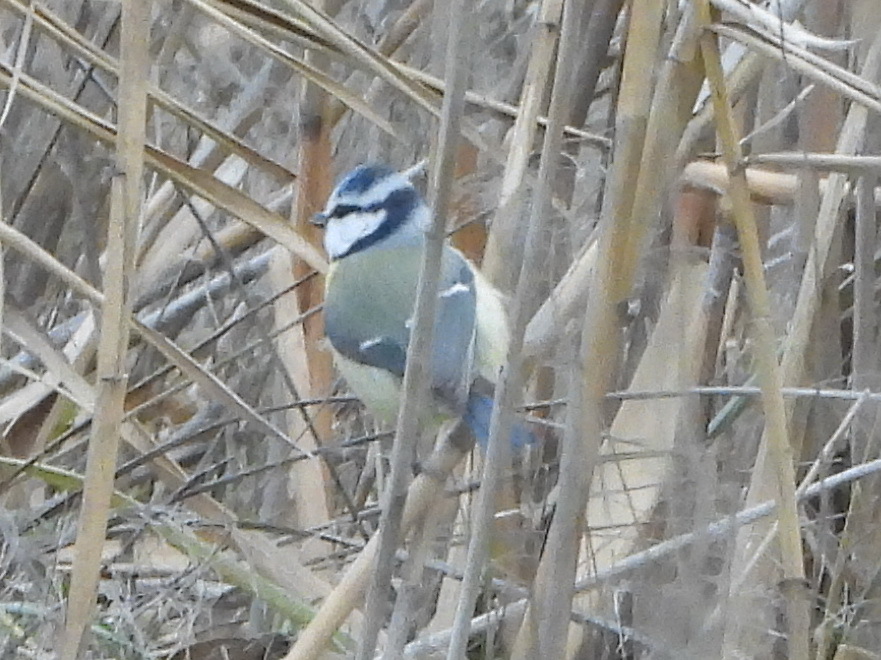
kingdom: Animalia
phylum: Chordata
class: Aves
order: Passeriformes
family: Paridae
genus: Cyanistes
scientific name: Cyanistes caeruleus
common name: Eurasian blue tit
